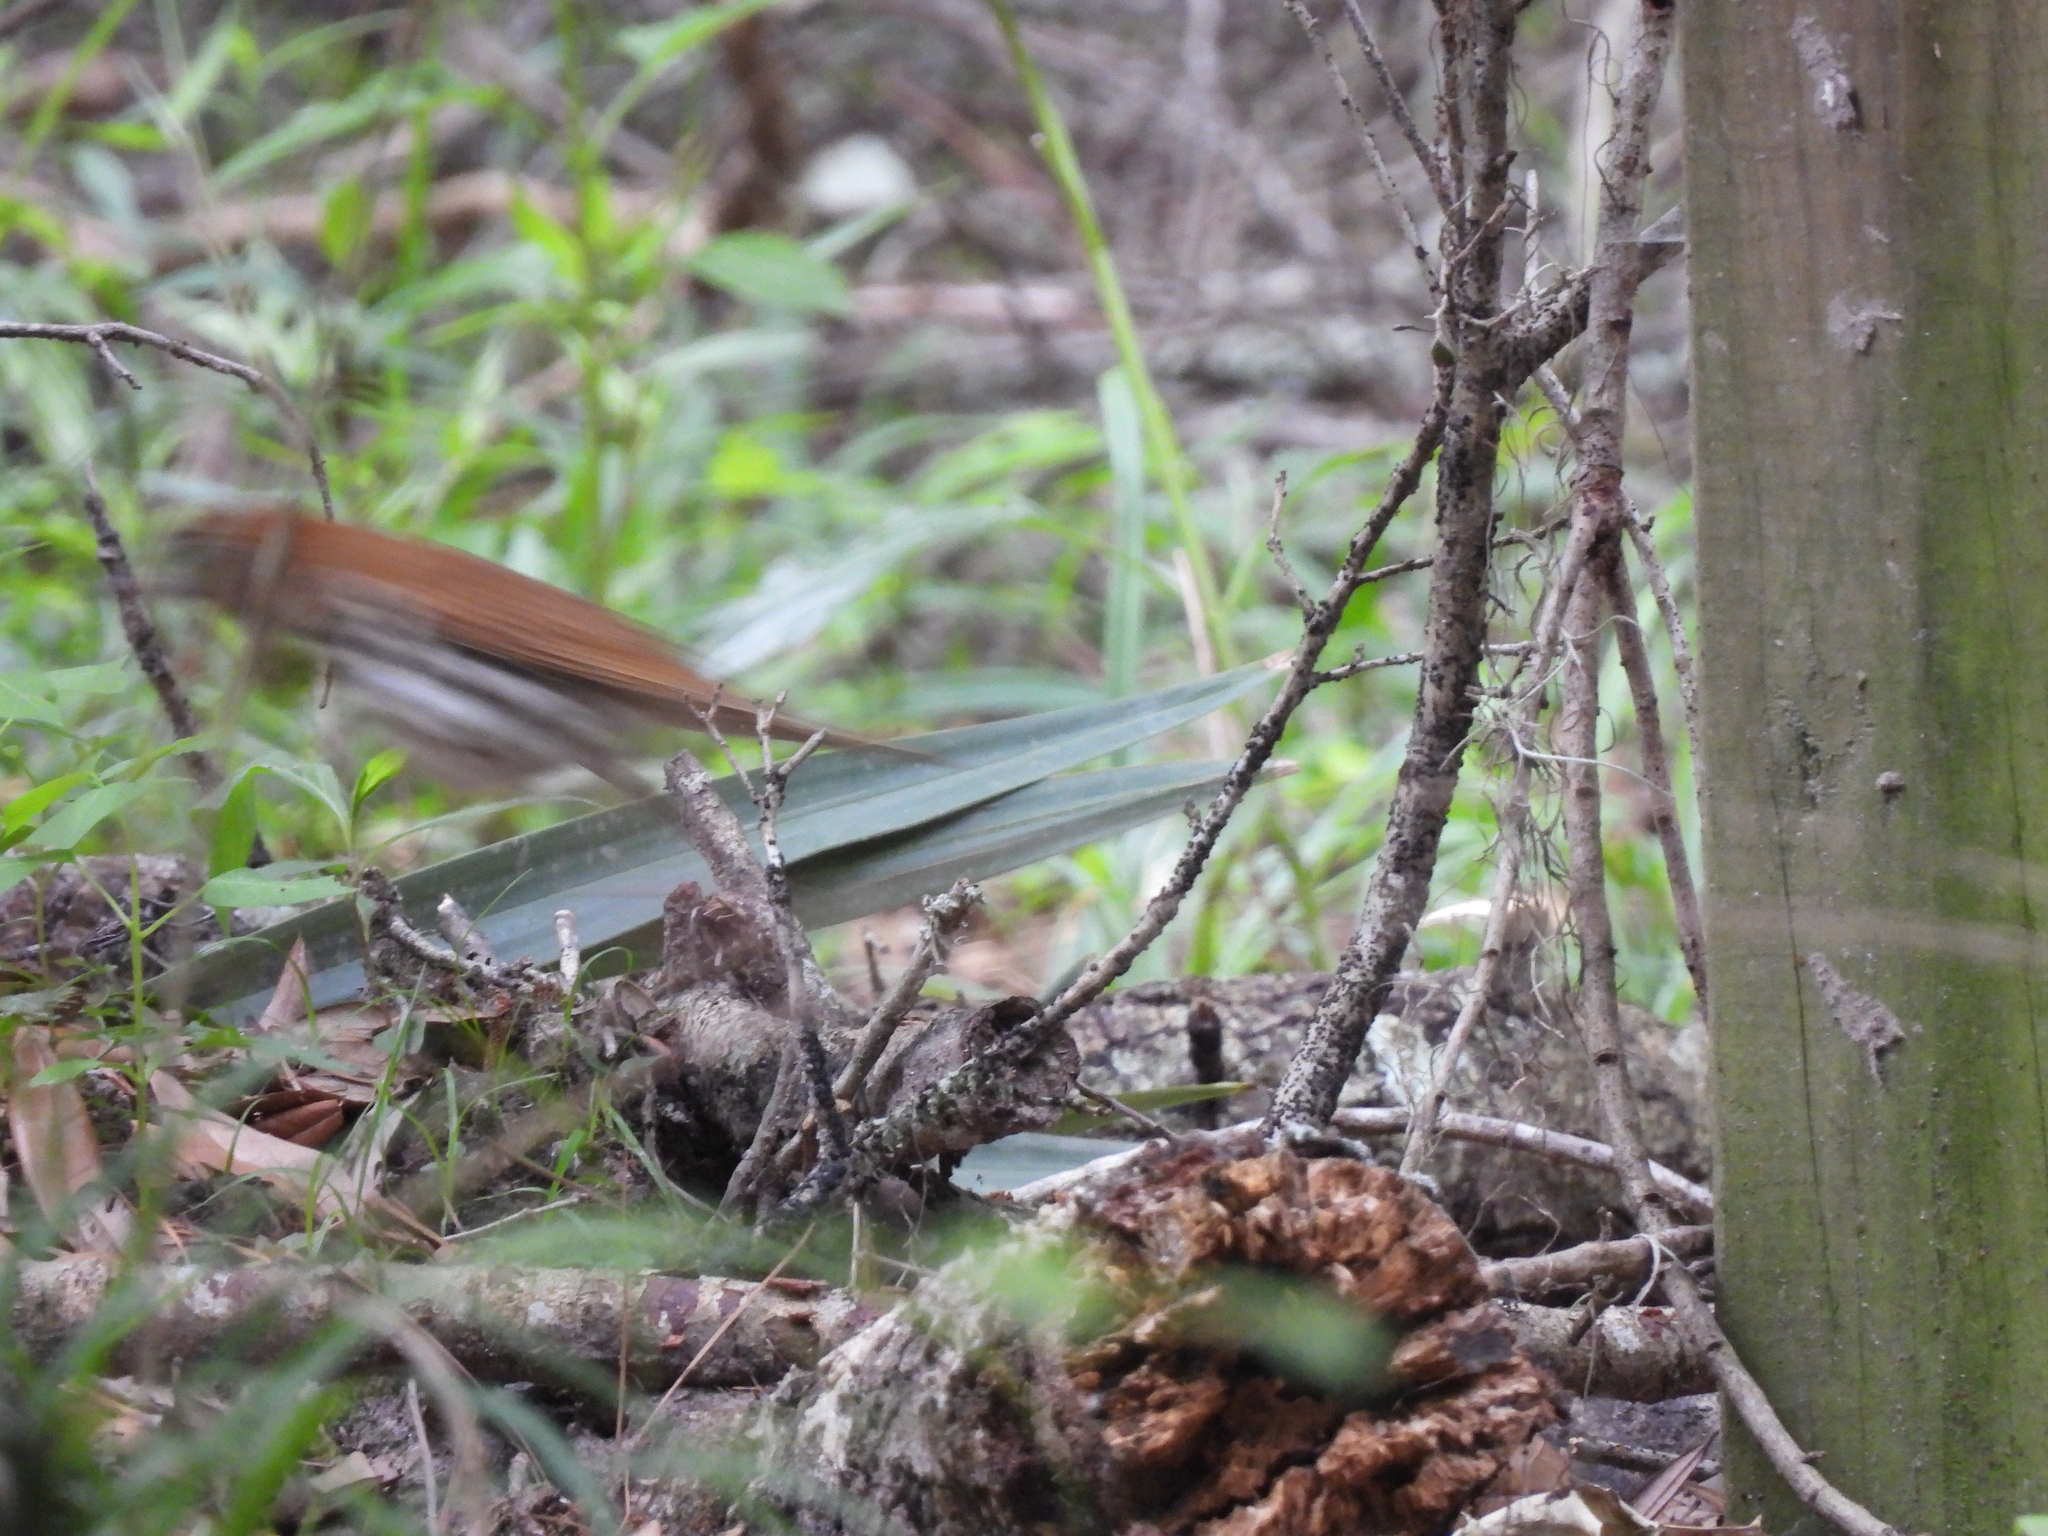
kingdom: Animalia
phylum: Chordata
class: Aves
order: Passeriformes
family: Turdidae
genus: Hylocichla
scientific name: Hylocichla mustelina
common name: Wood thrush
